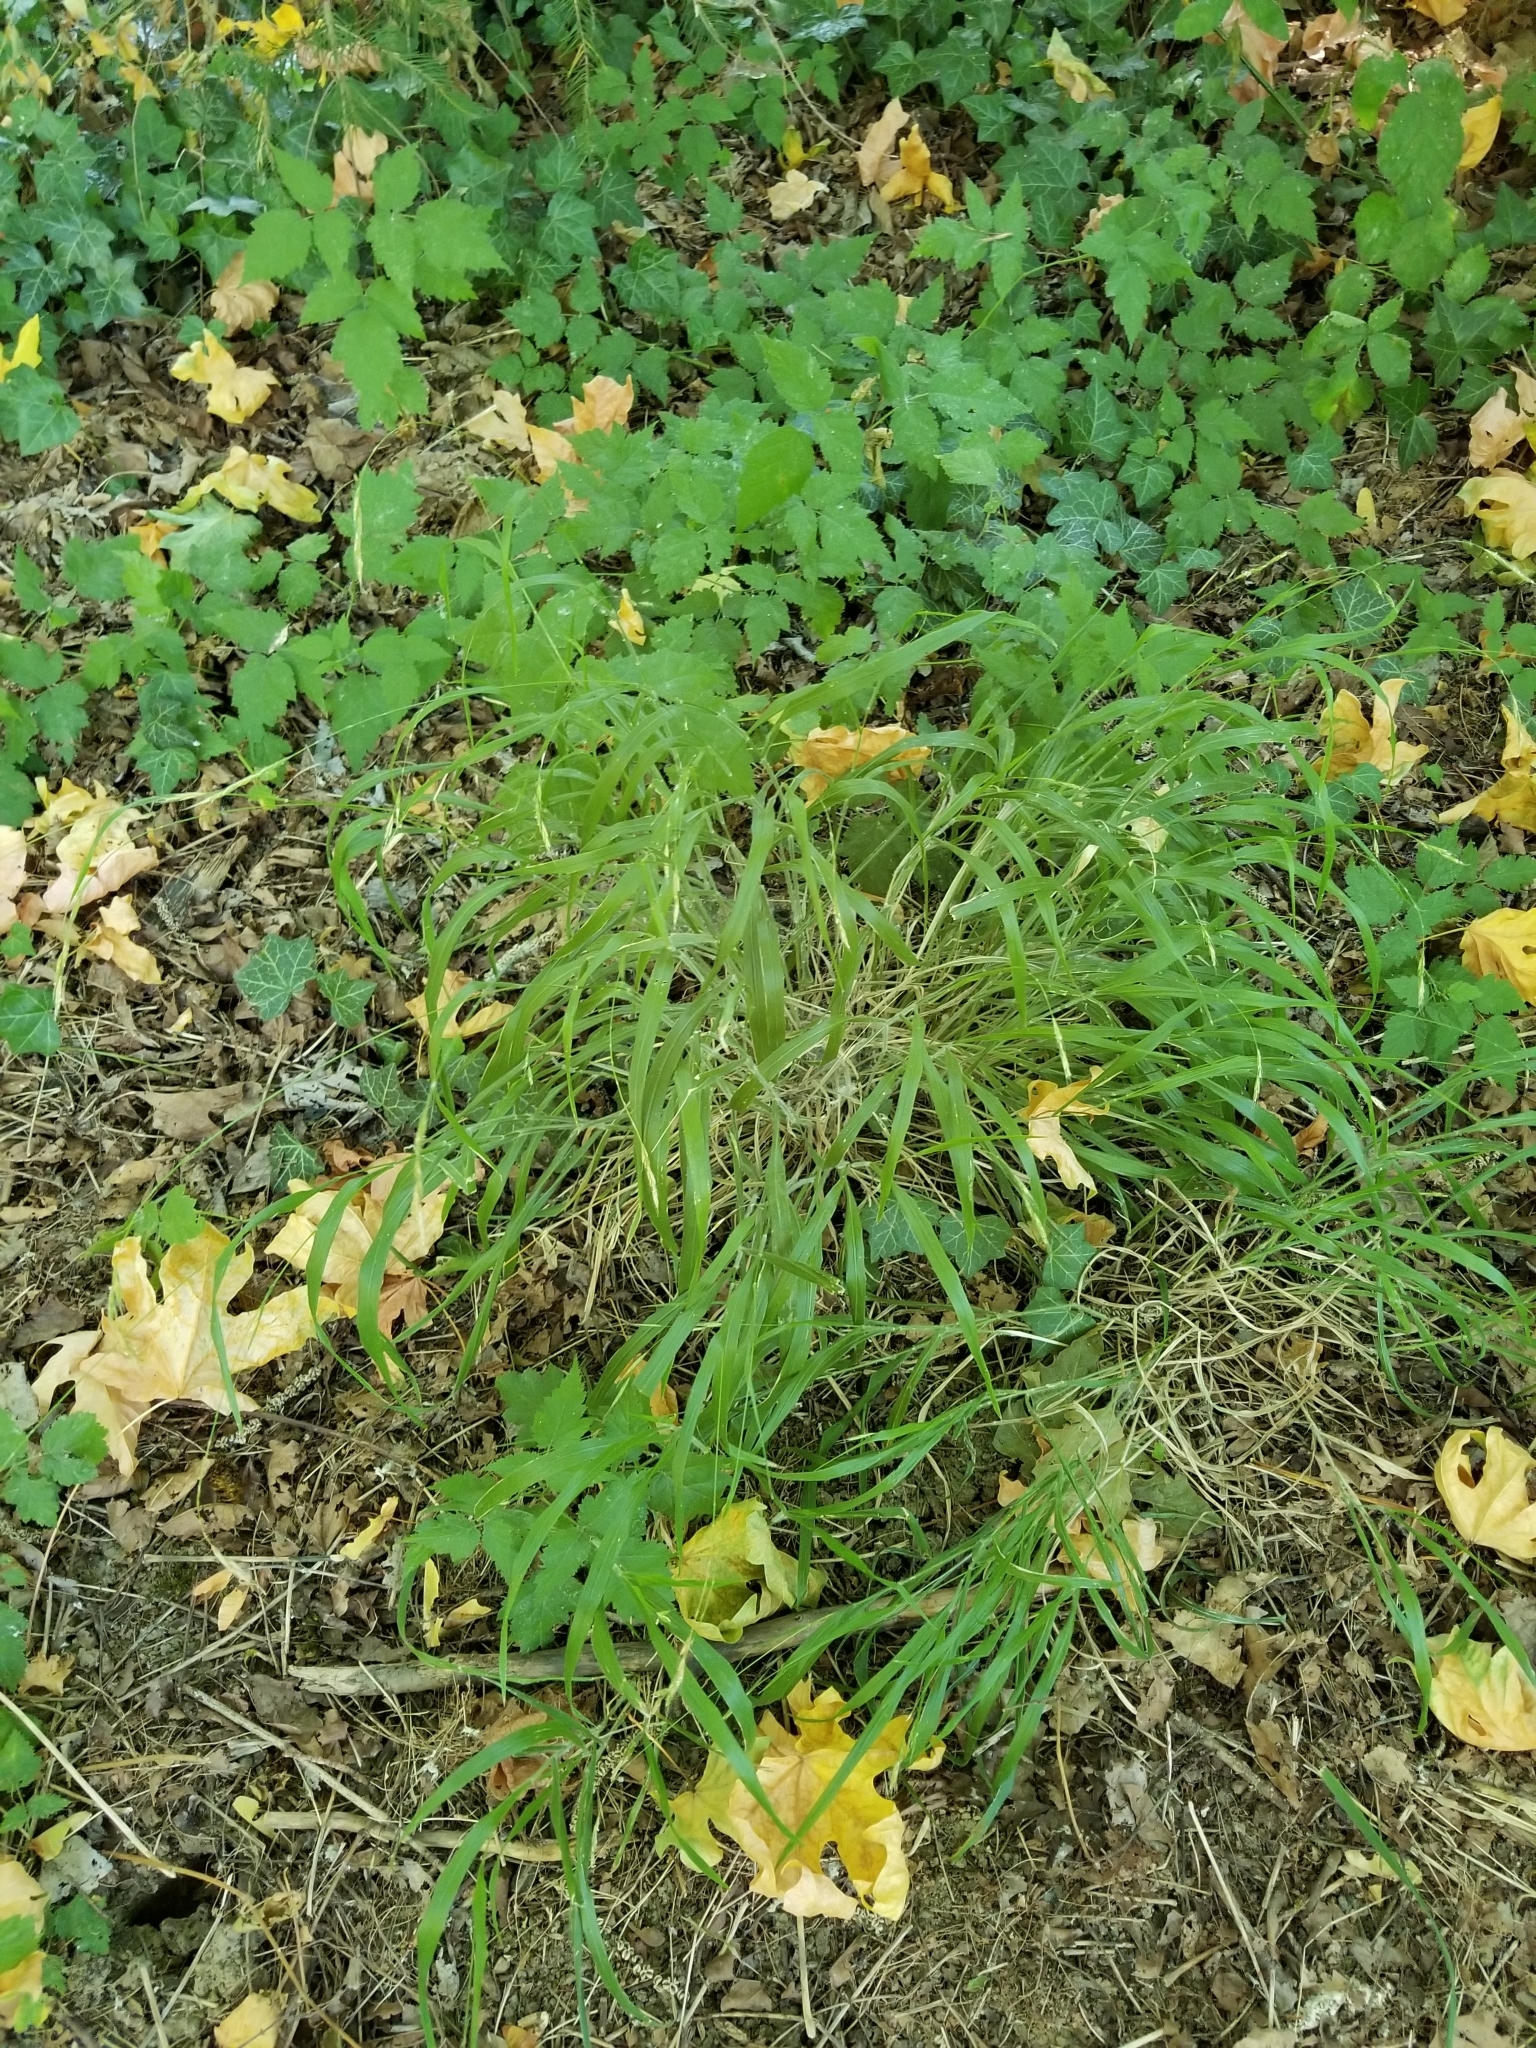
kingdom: Plantae
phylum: Tracheophyta
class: Liliopsida
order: Poales
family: Poaceae
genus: Brachypodium
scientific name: Brachypodium sylvaticum
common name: False-brome
